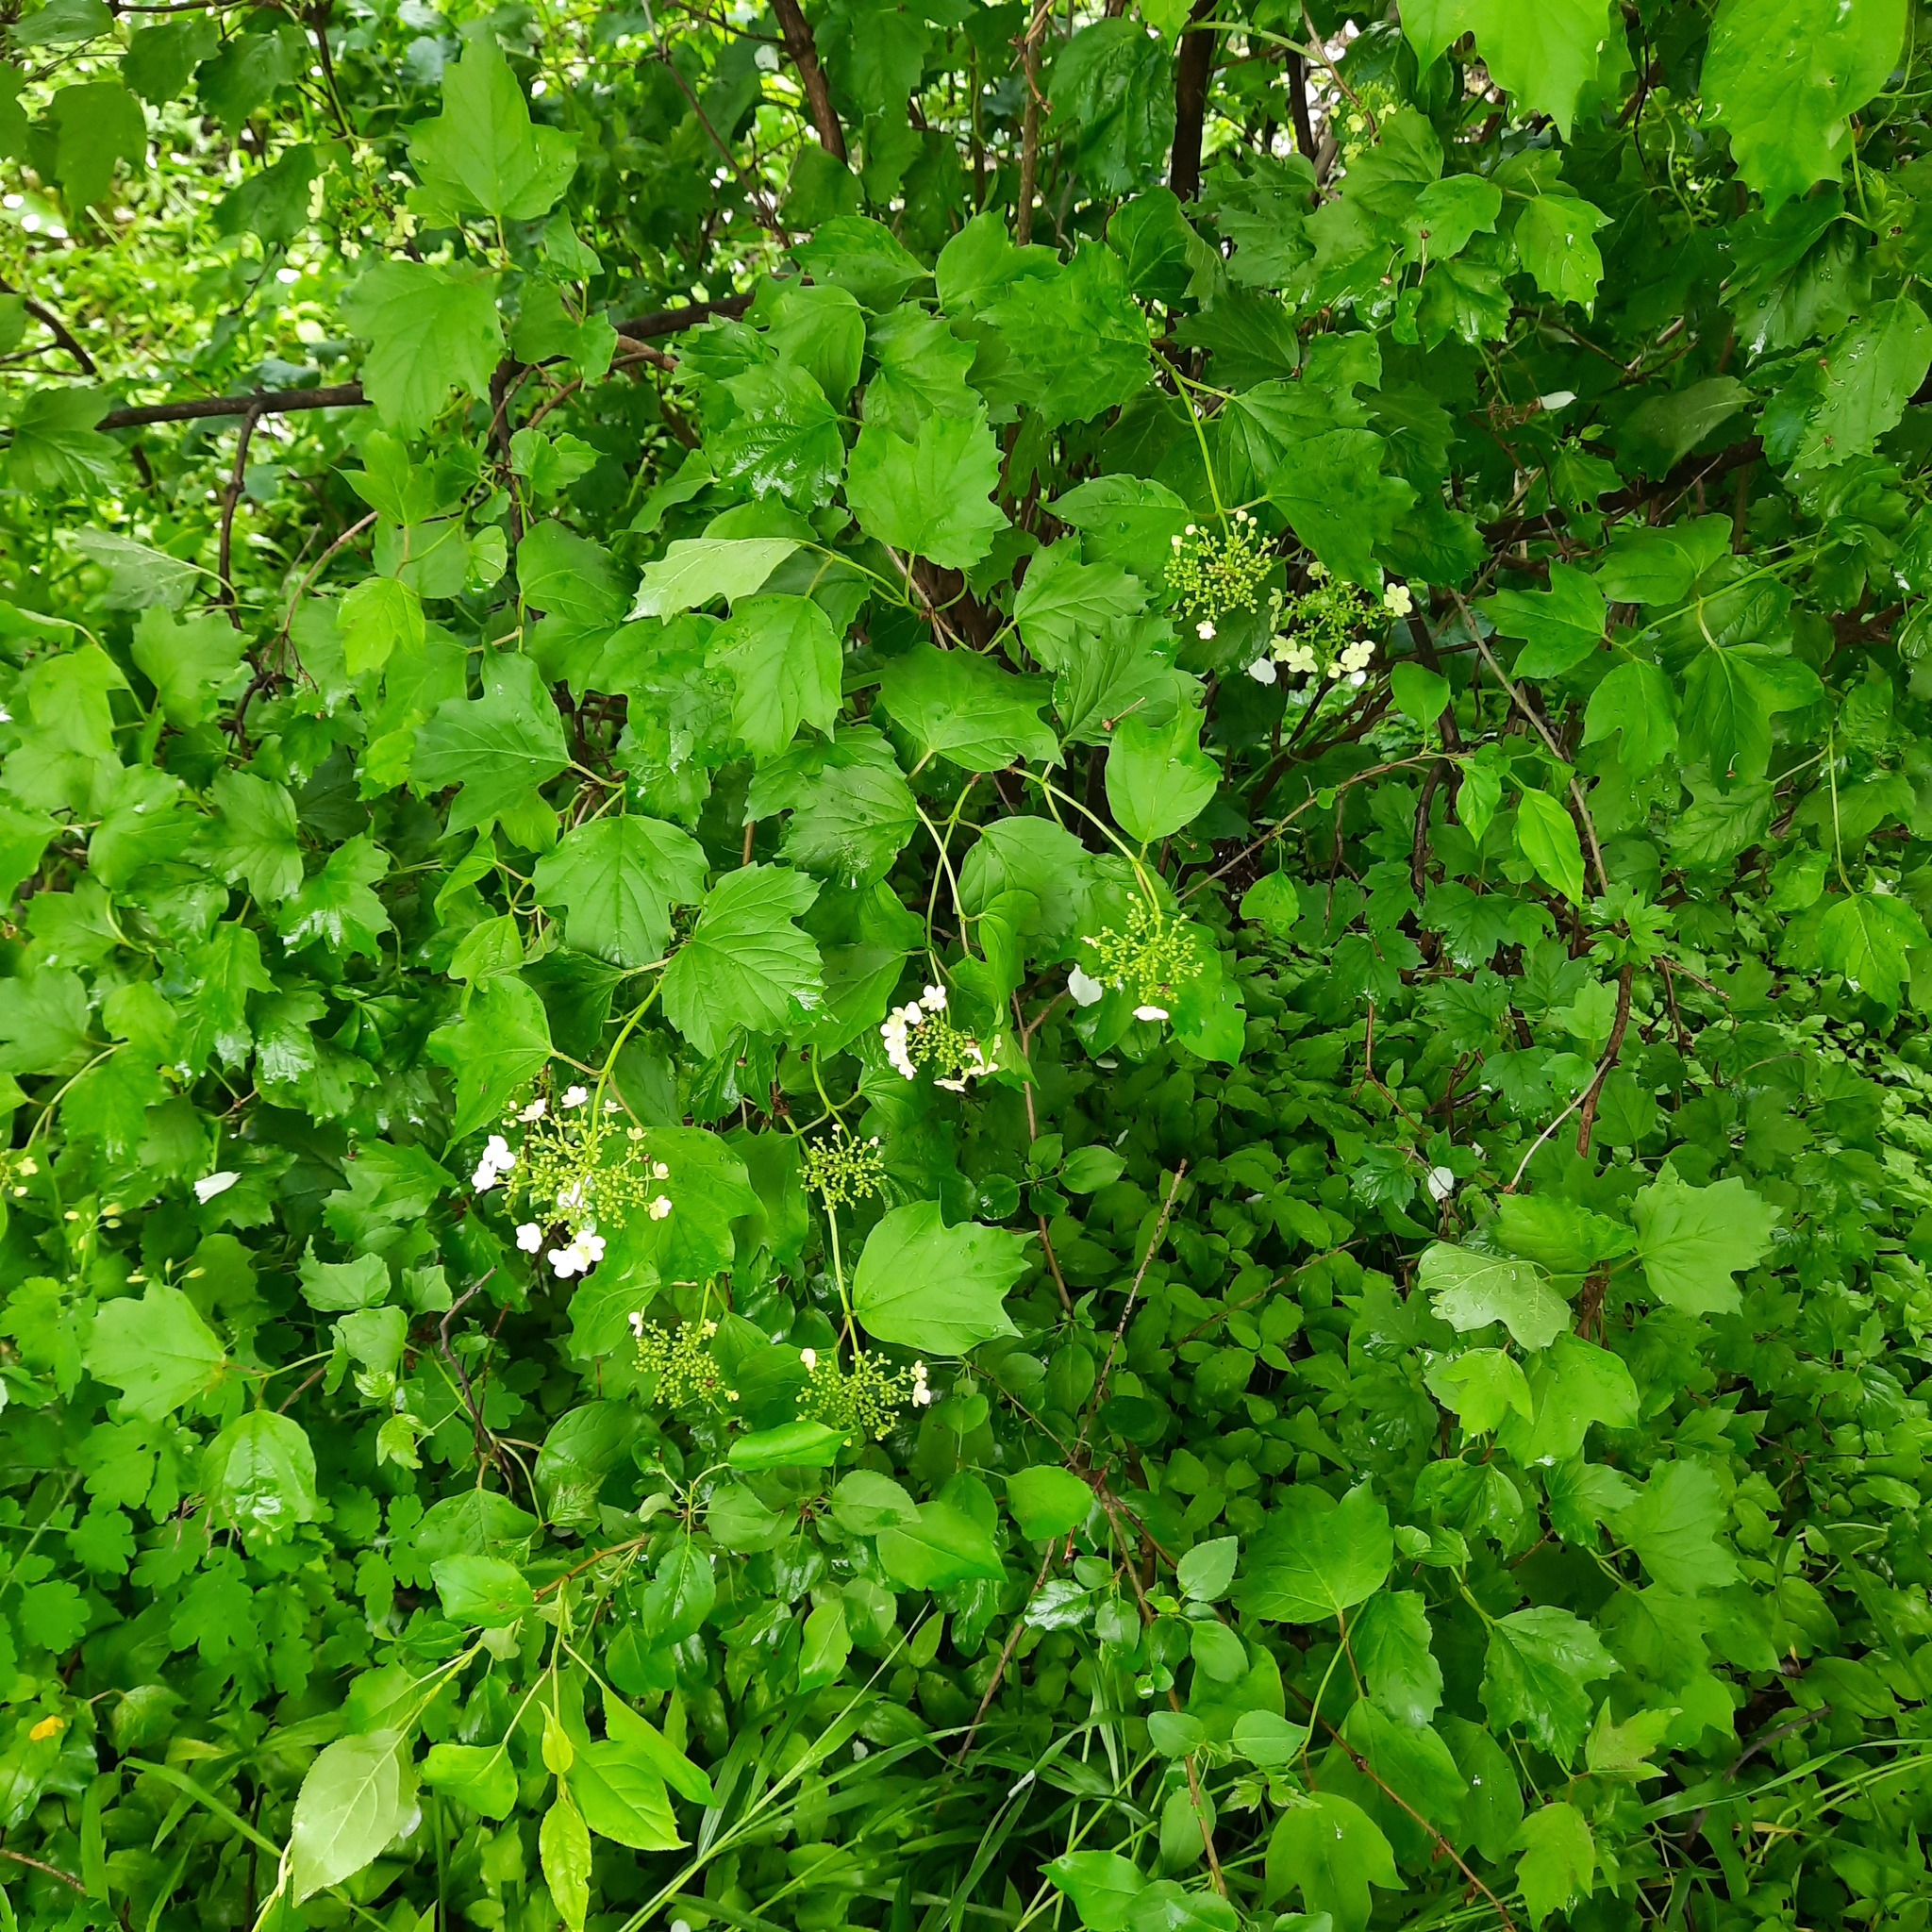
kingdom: Plantae
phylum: Tracheophyta
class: Magnoliopsida
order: Dipsacales
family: Viburnaceae
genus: Viburnum
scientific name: Viburnum opulus
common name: Guelder-rose
